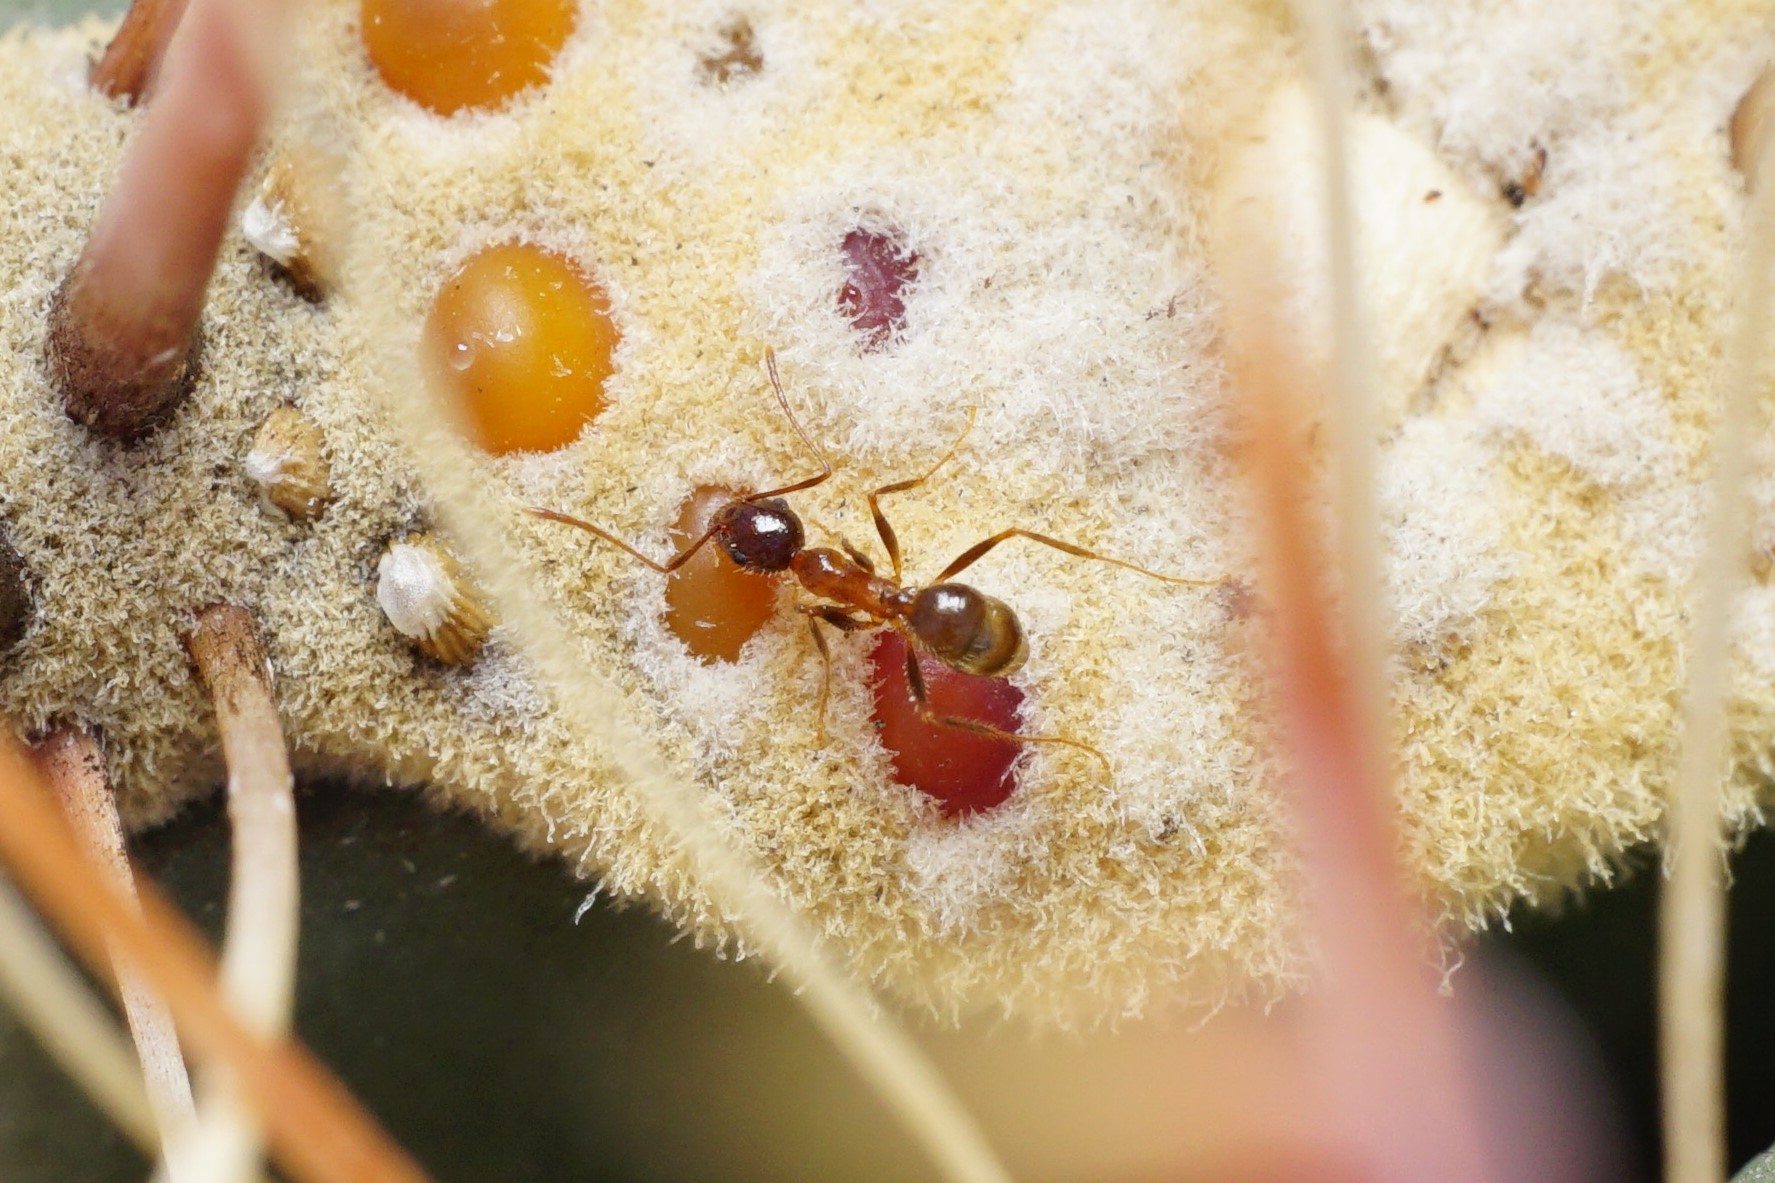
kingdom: Animalia
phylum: Arthropoda
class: Insecta
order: Hymenoptera
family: Formicidae
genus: Pheidole
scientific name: Pheidole obtusospinosa
